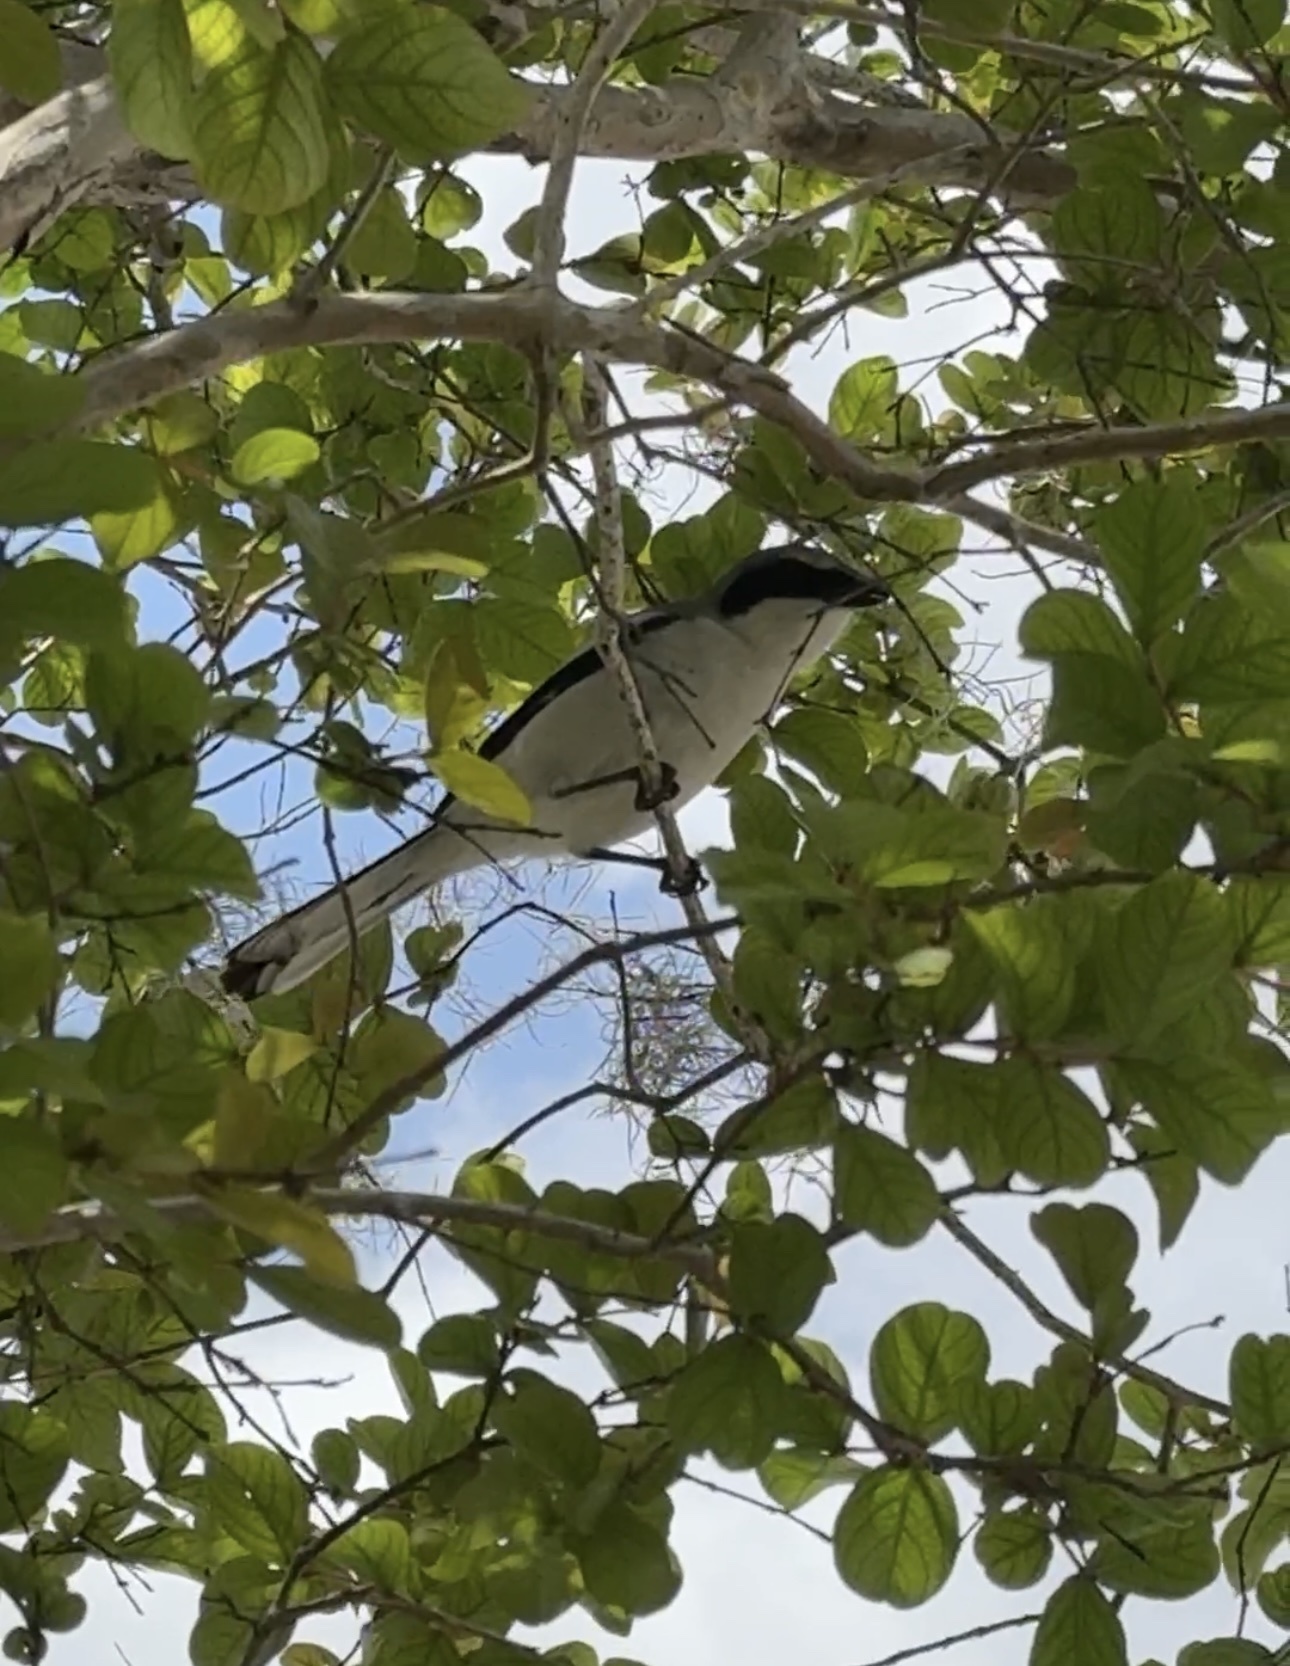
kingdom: Animalia
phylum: Chordata
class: Aves
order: Passeriformes
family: Laniidae
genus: Lanius
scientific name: Lanius ludovicianus
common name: Loggerhead shrike
